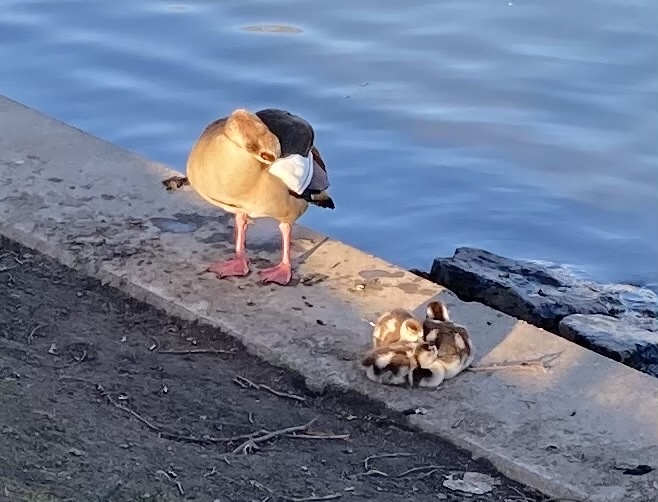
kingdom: Animalia
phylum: Chordata
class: Aves
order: Anseriformes
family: Anatidae
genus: Alopochen
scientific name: Alopochen aegyptiaca
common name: Egyptian goose
